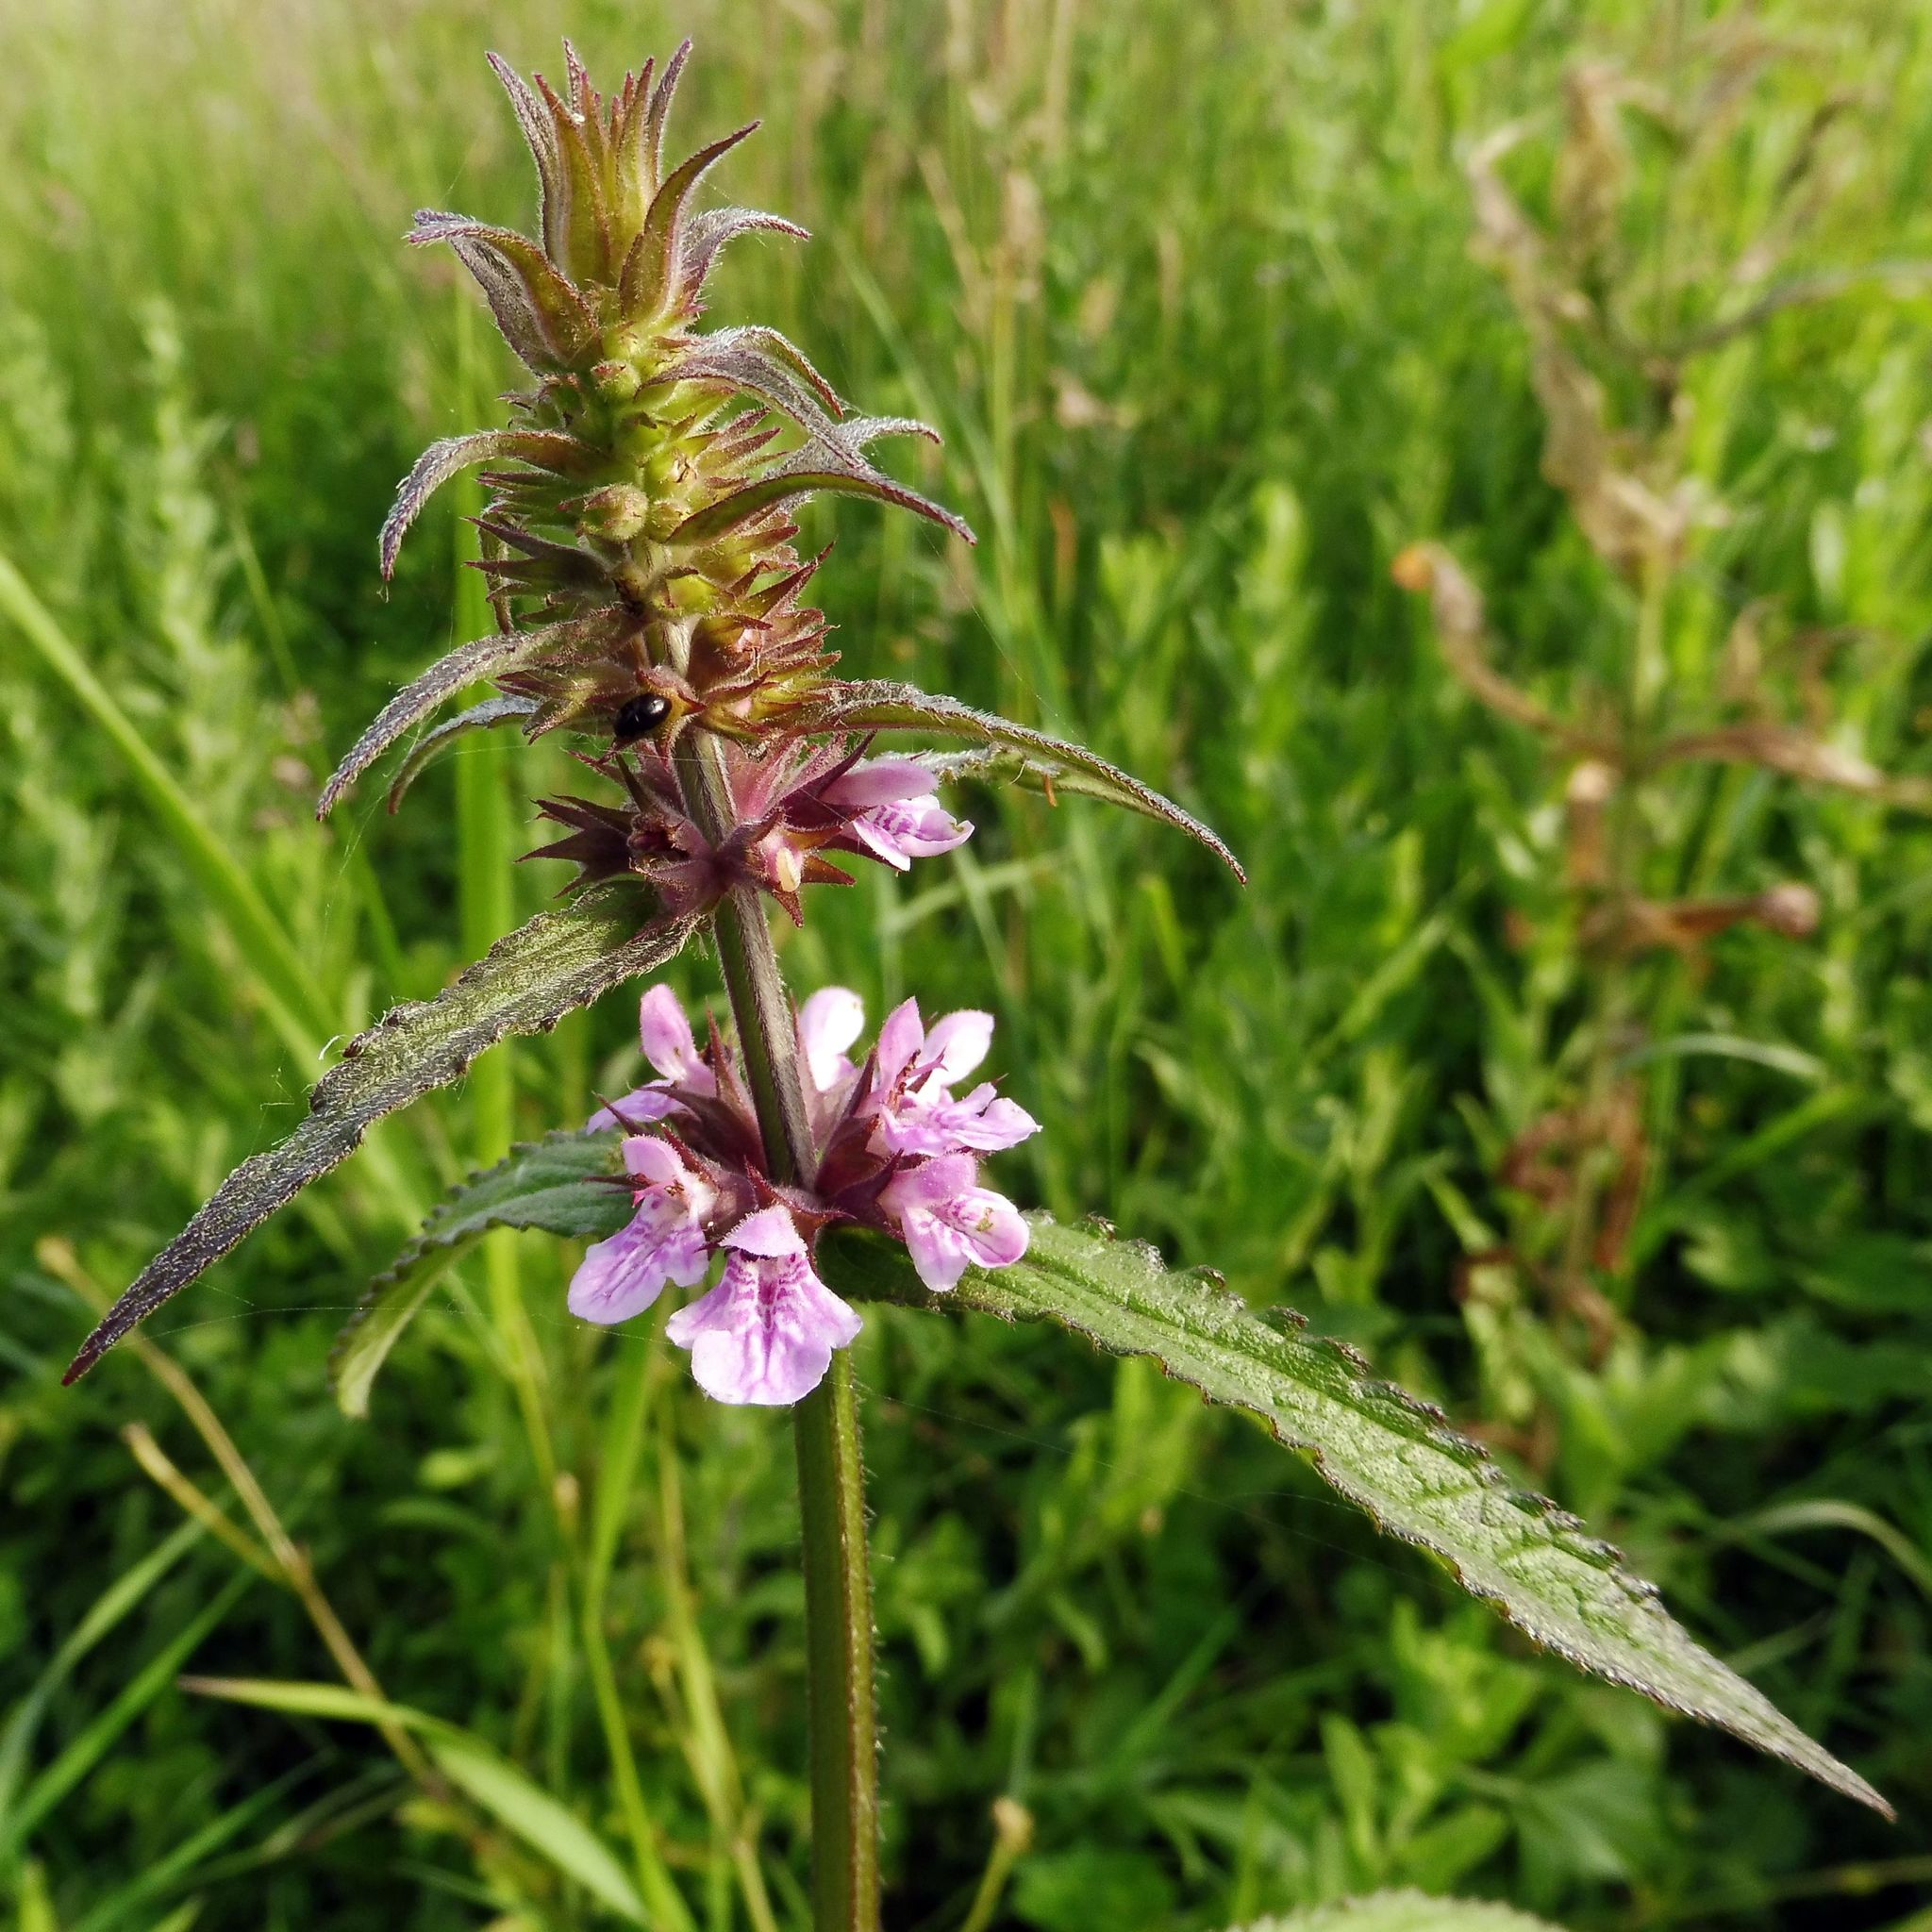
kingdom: Plantae
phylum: Tracheophyta
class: Magnoliopsida
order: Lamiales
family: Lamiaceae
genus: Stachys
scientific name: Stachys palustris
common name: Marsh woundwort
